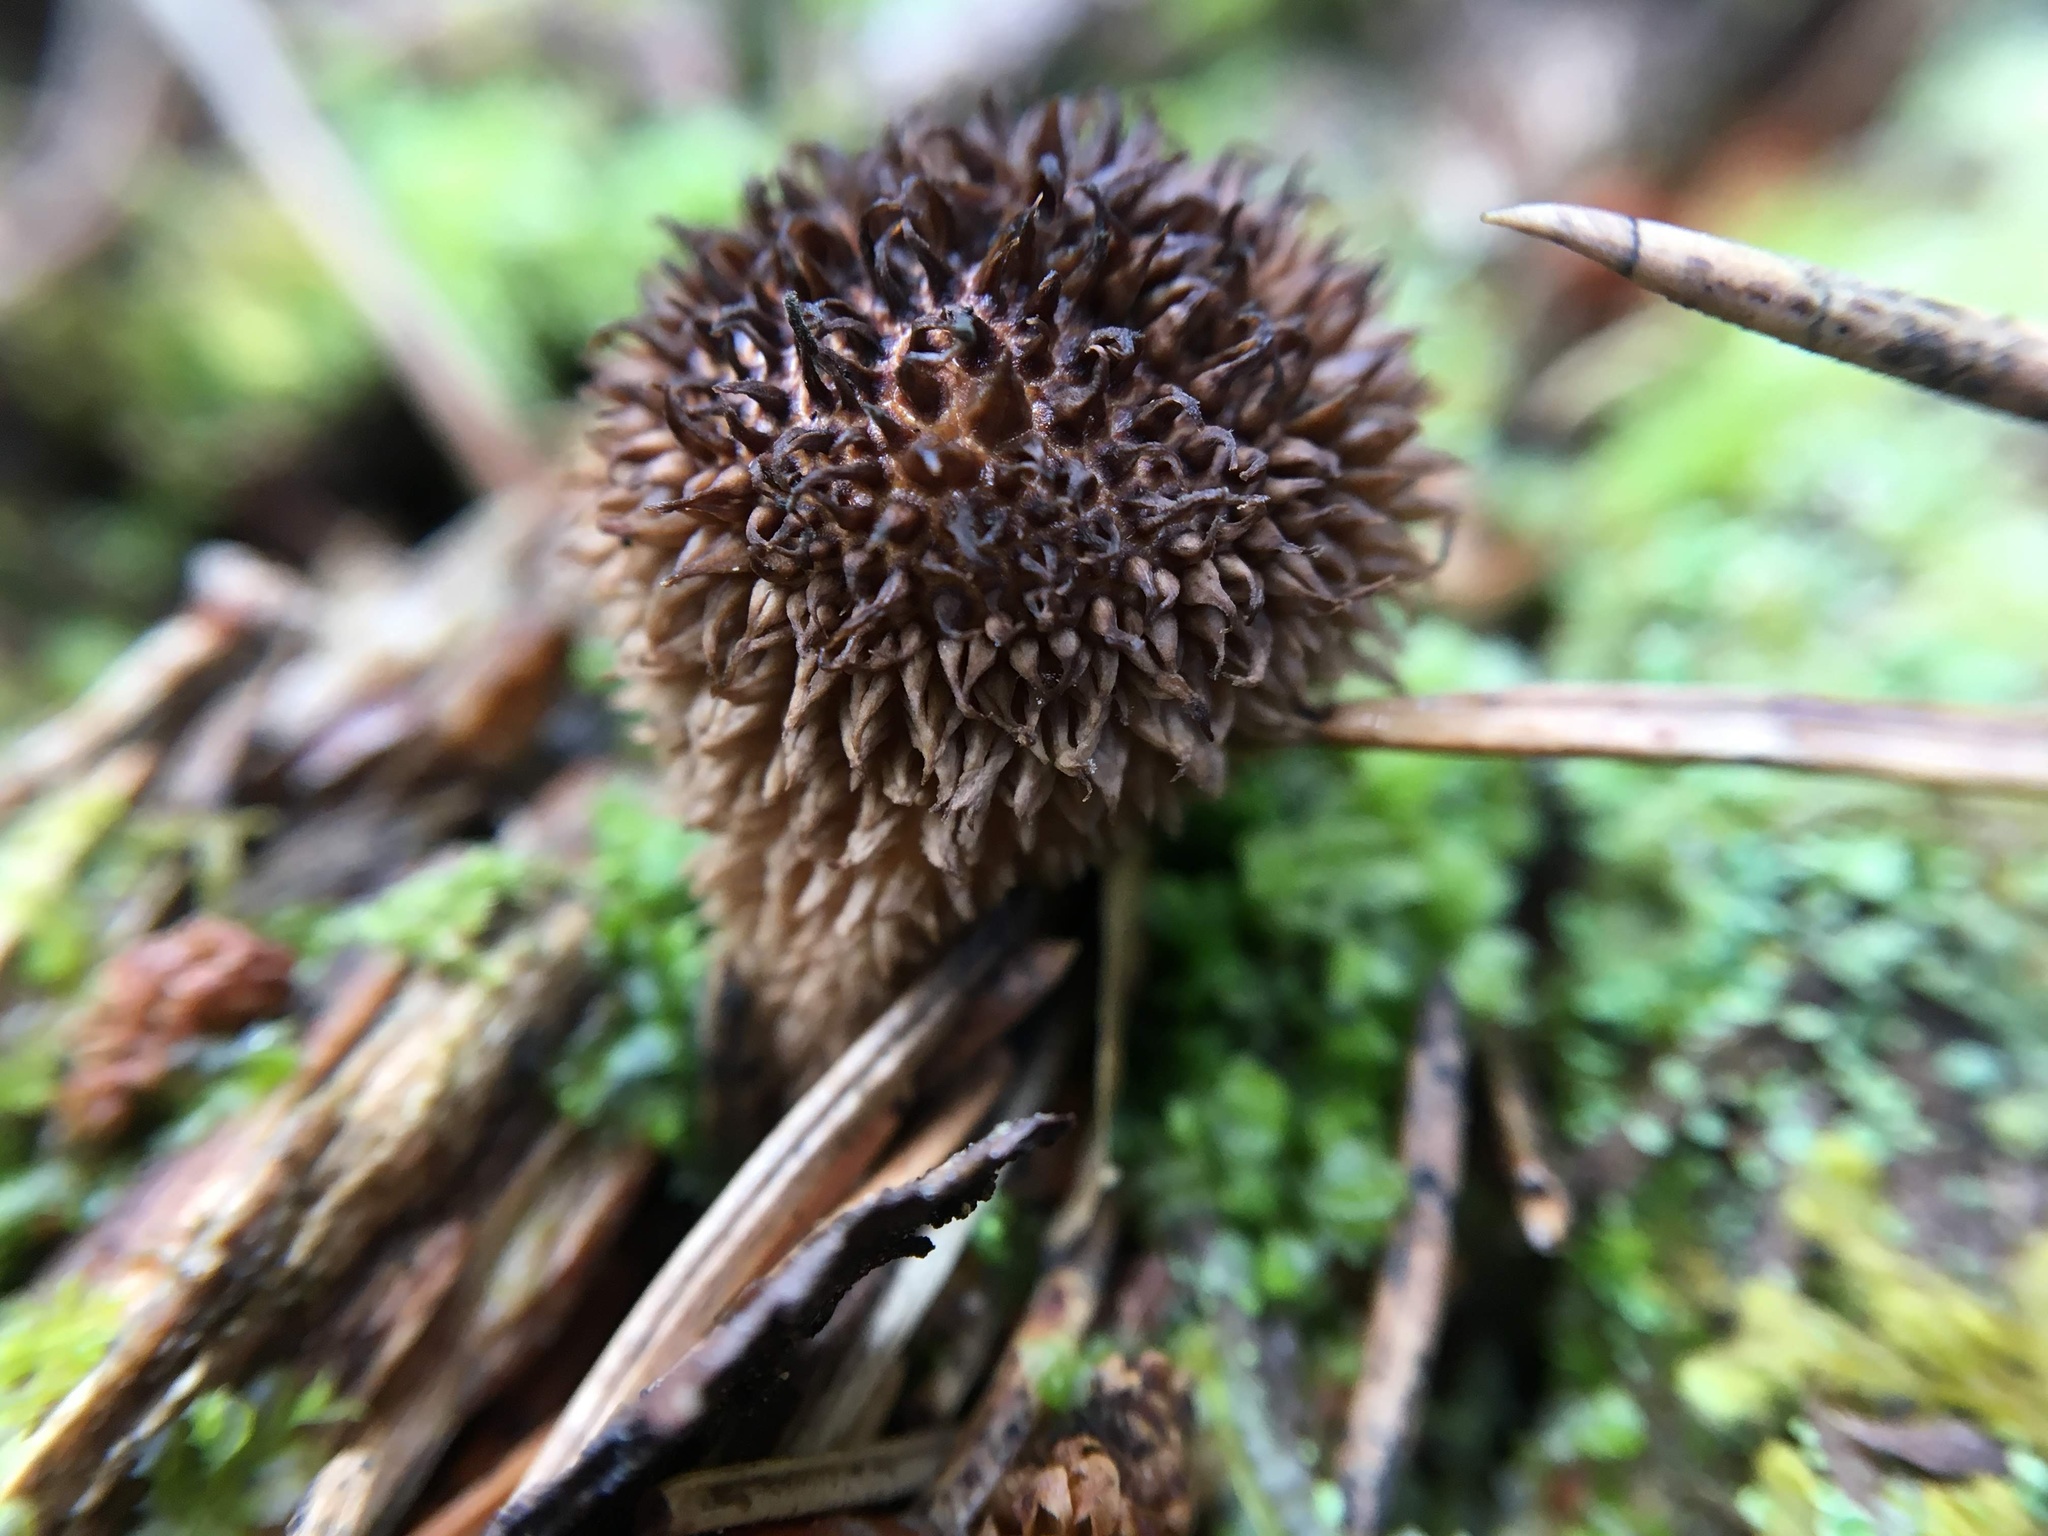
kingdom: Fungi
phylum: Basidiomycota
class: Agaricomycetes
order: Agaricales
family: Lycoperdaceae
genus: Lycoperdon
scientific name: Lycoperdon echinatum
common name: Hedgehog puffball
